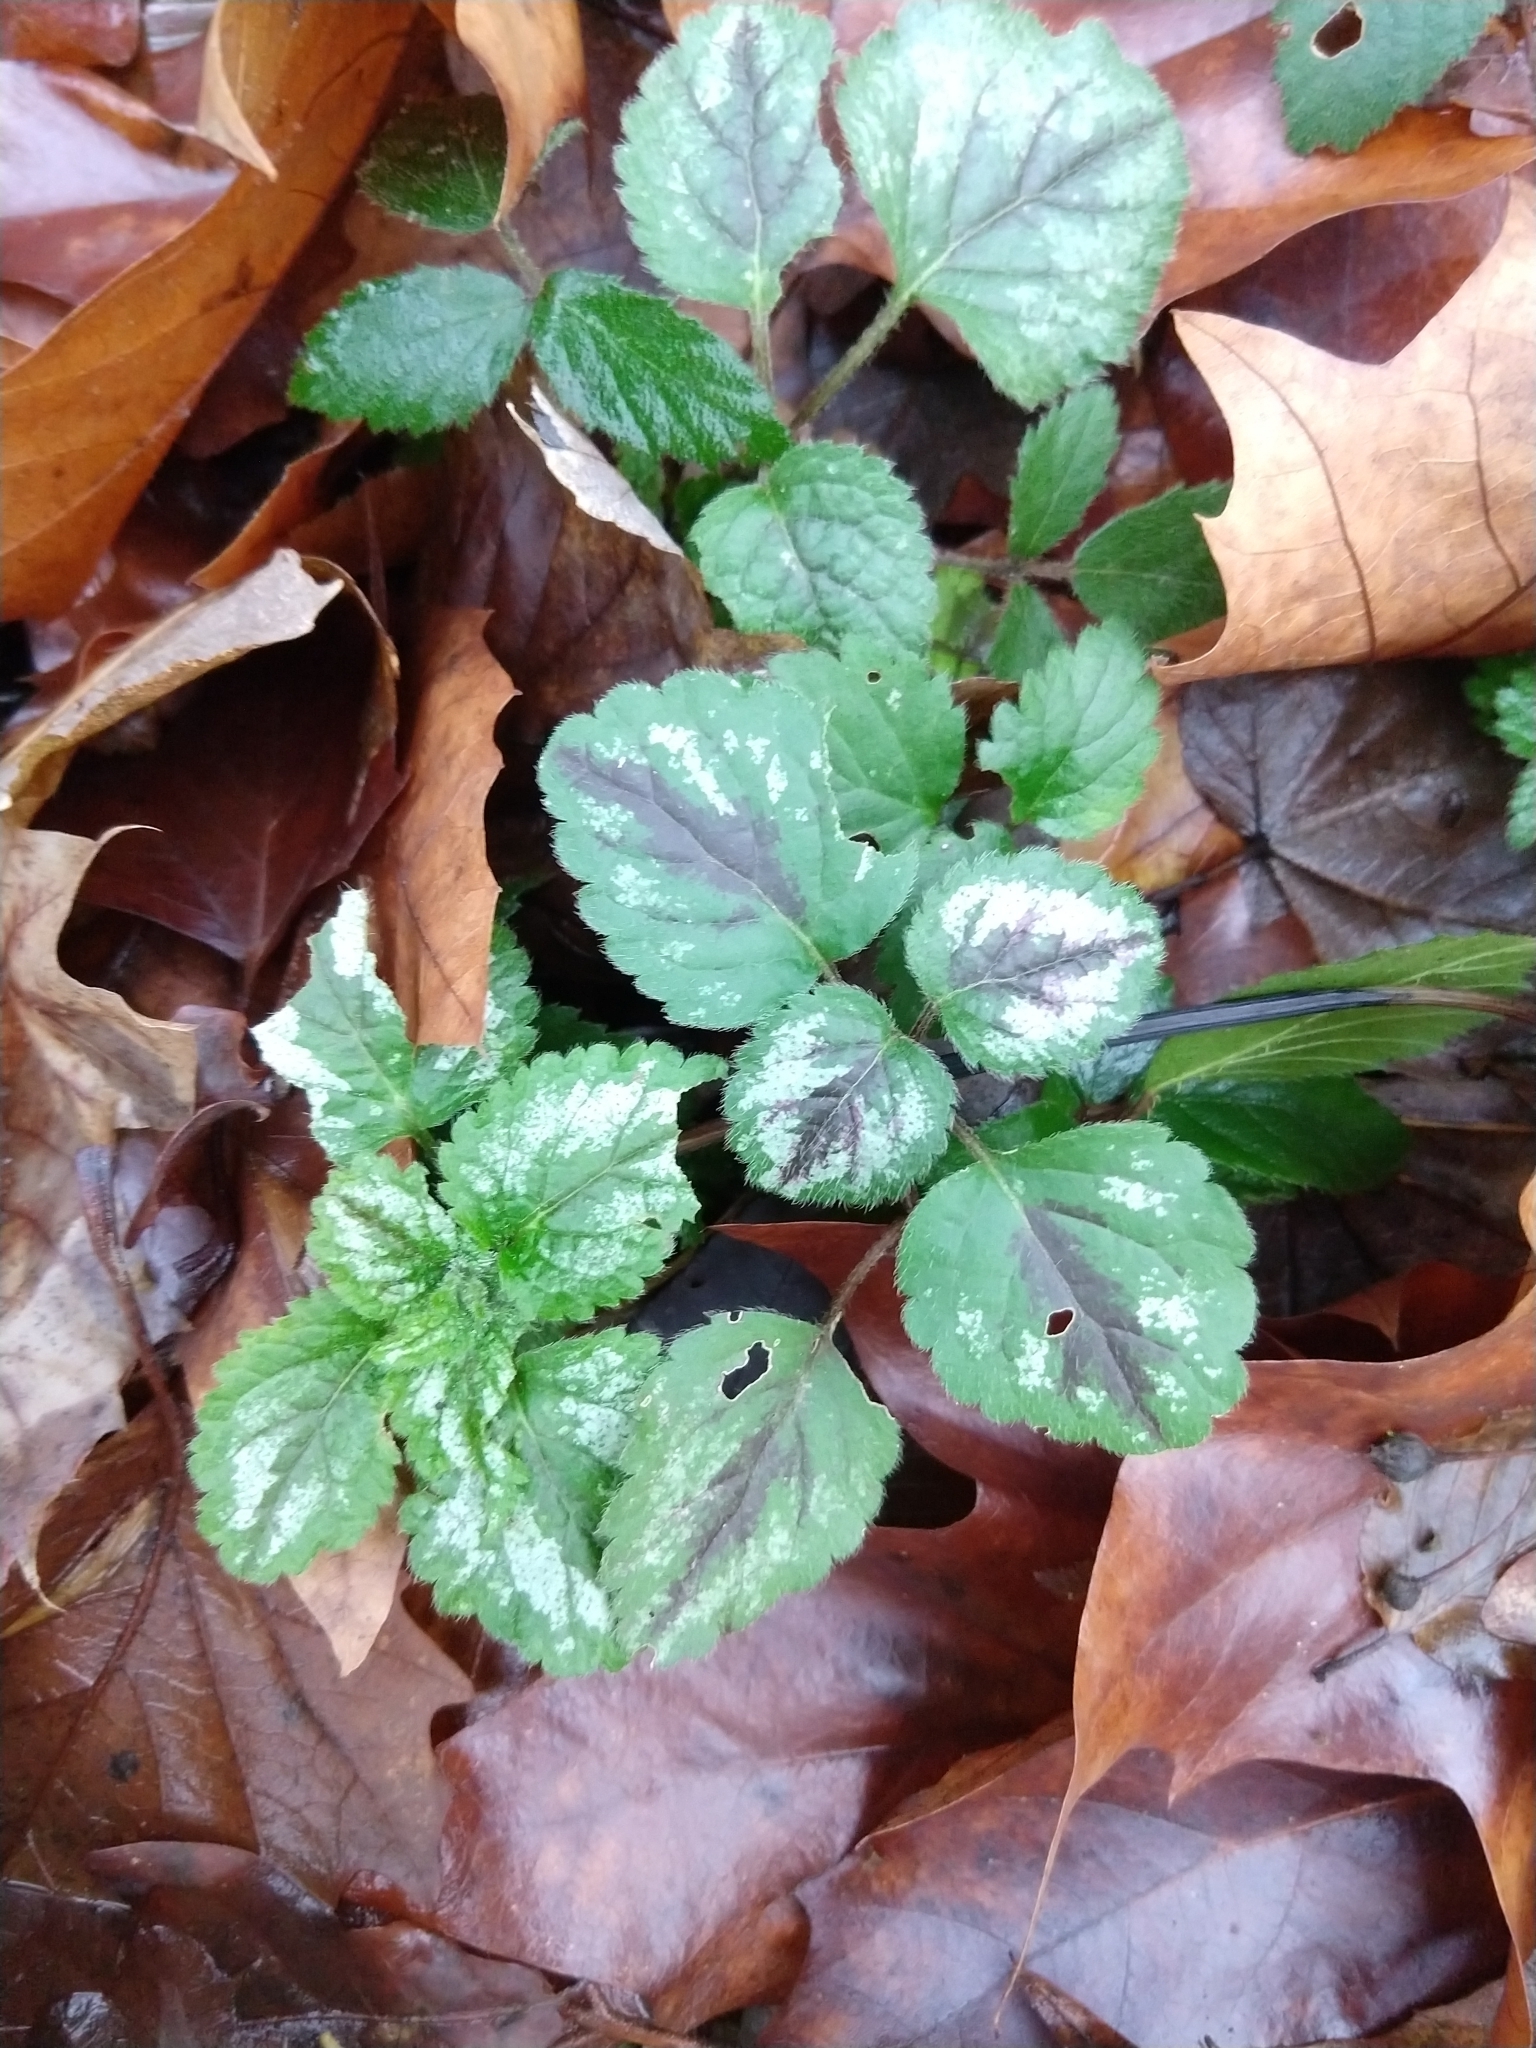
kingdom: Plantae
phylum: Tracheophyta
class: Magnoliopsida
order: Lamiales
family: Lamiaceae
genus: Lamium
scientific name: Lamium galeobdolon
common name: Yellow archangel
